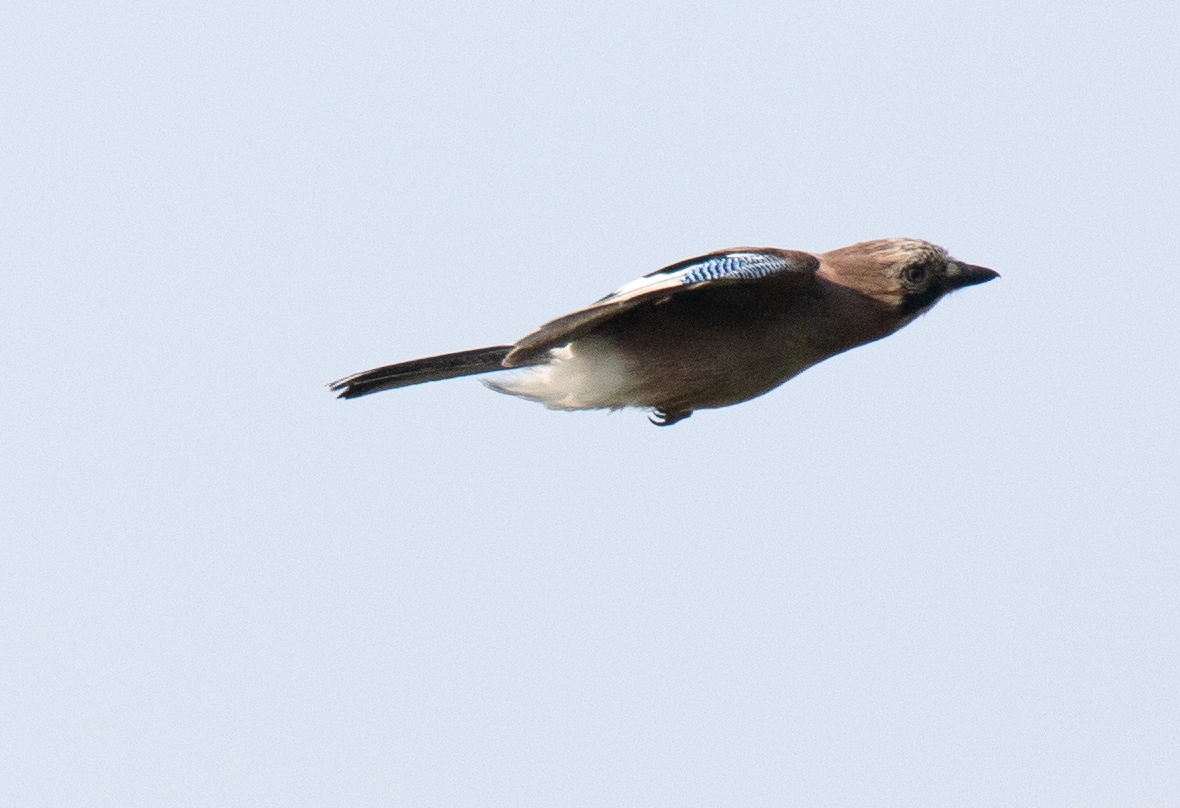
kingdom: Animalia
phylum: Chordata
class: Aves
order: Passeriformes
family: Corvidae
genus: Garrulus
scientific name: Garrulus glandarius
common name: Eurasian jay
